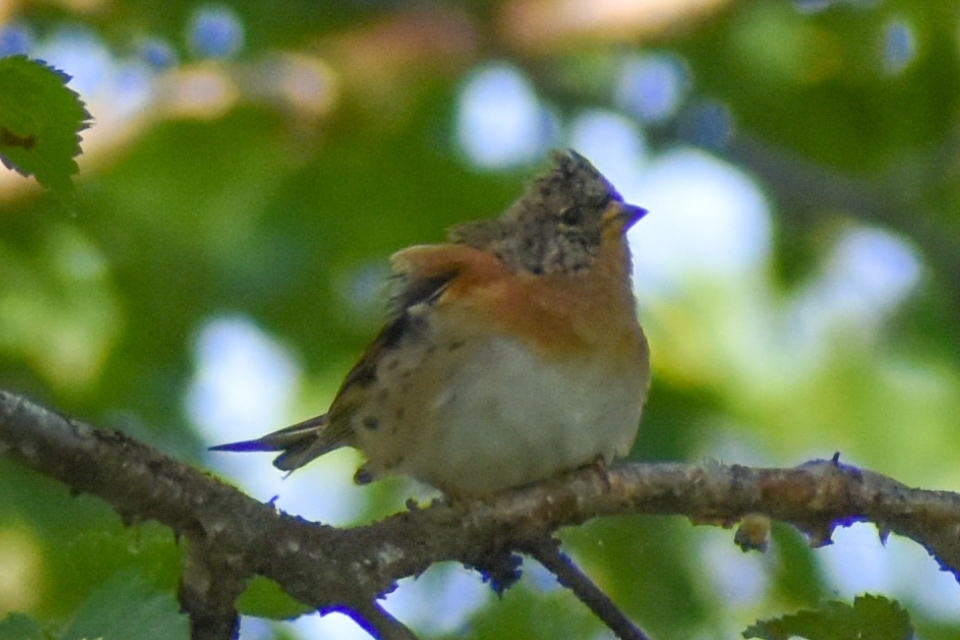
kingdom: Animalia
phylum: Chordata
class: Aves
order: Passeriformes
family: Fringillidae
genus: Fringilla
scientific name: Fringilla montifringilla
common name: Brambling
